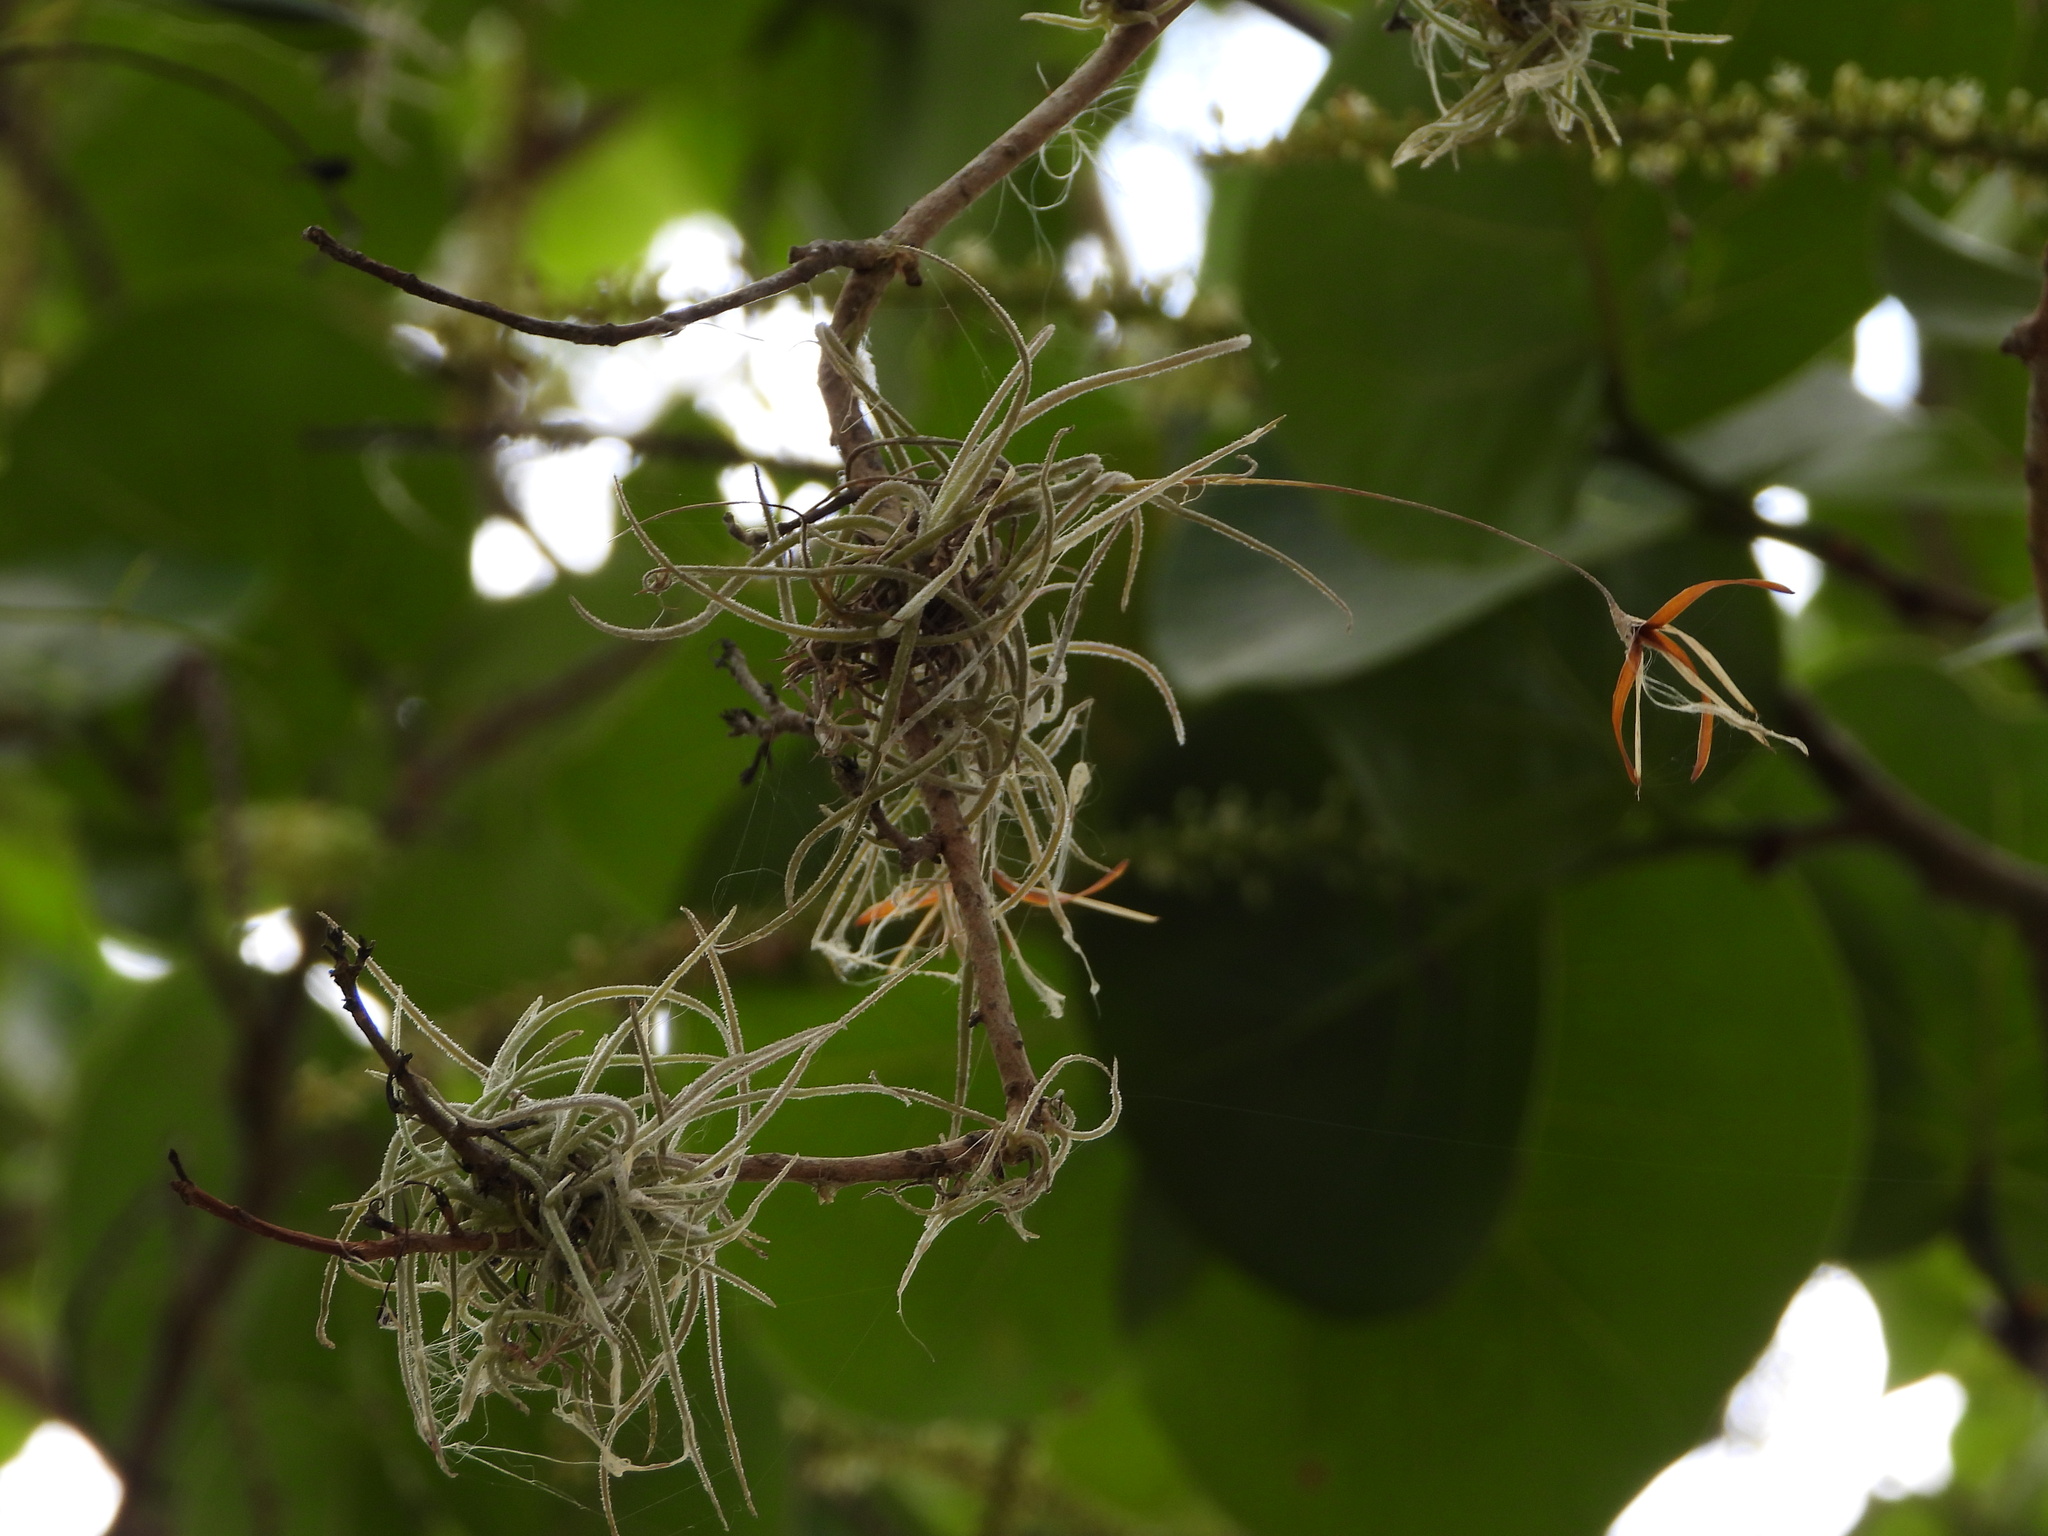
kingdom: Plantae
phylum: Tracheophyta
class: Liliopsida
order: Poales
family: Bromeliaceae
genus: Tillandsia
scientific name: Tillandsia recurvata
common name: Small ballmoss
